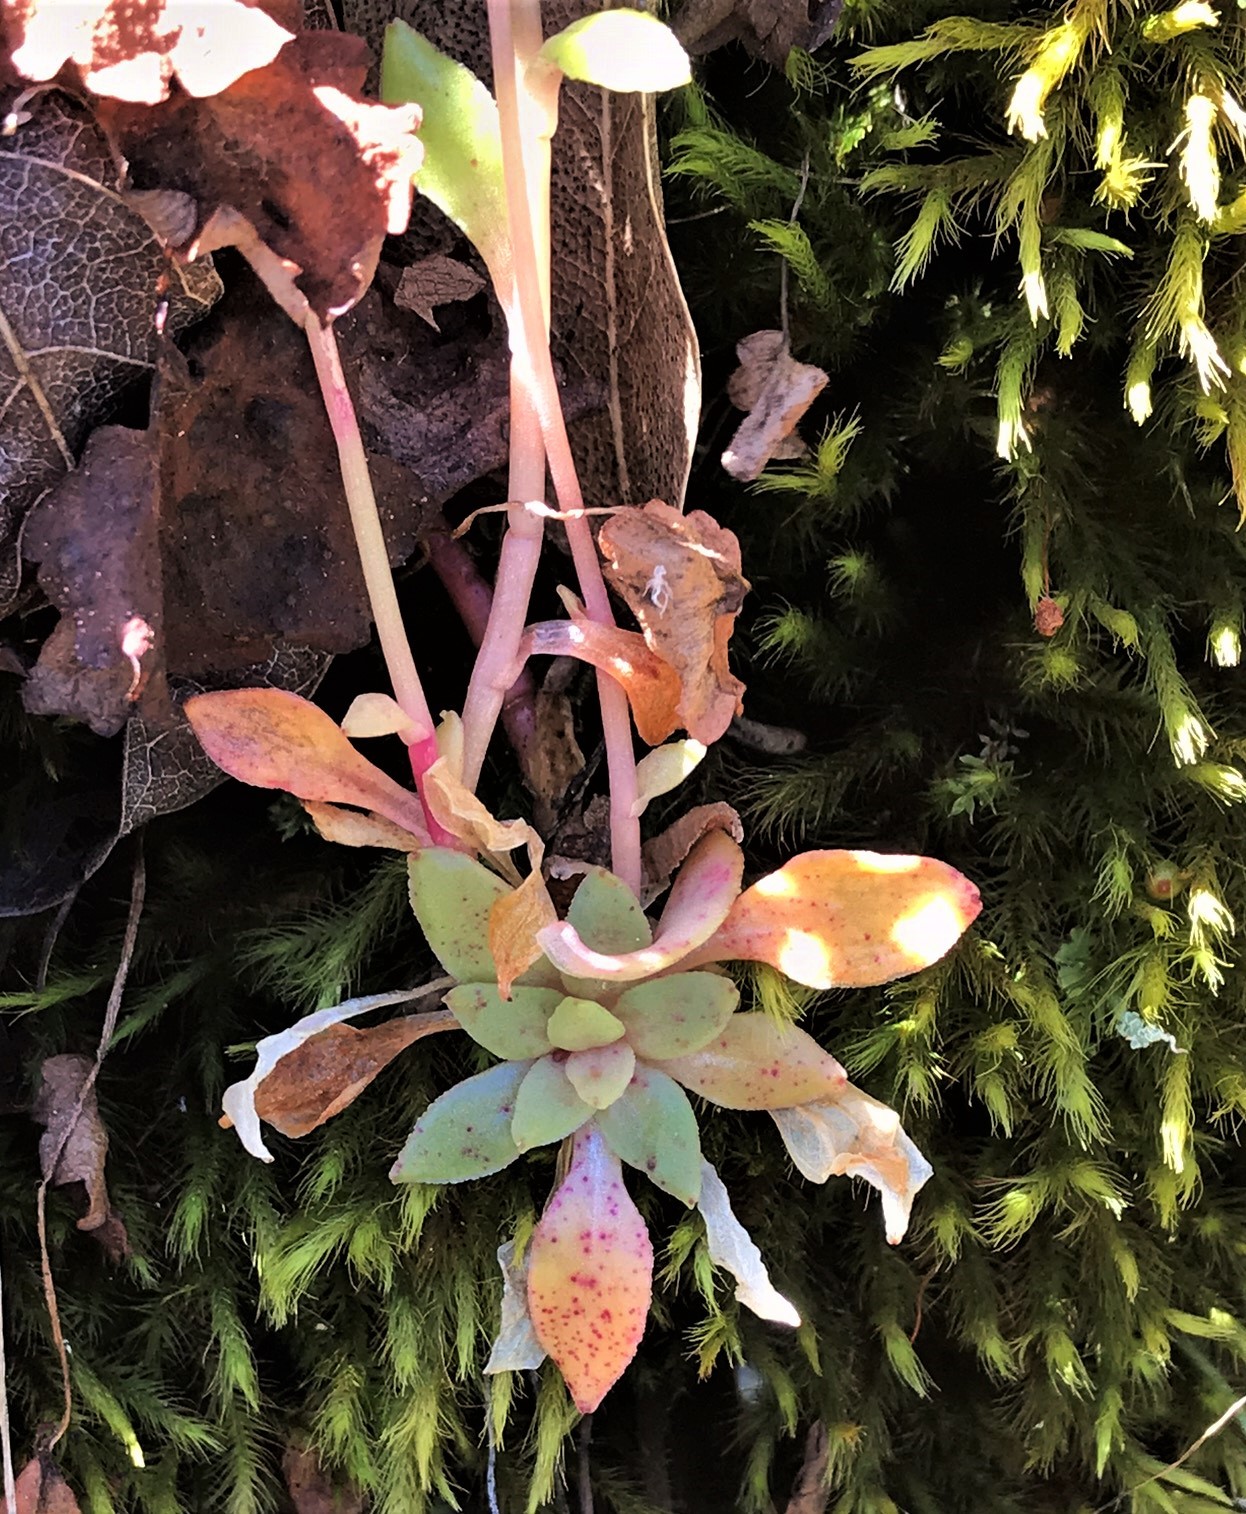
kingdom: Plantae
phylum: Tracheophyta
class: Magnoliopsida
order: Caryophyllales
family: Montiaceae
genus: Montia
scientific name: Montia parvifolia
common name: Small-leaved blinks
